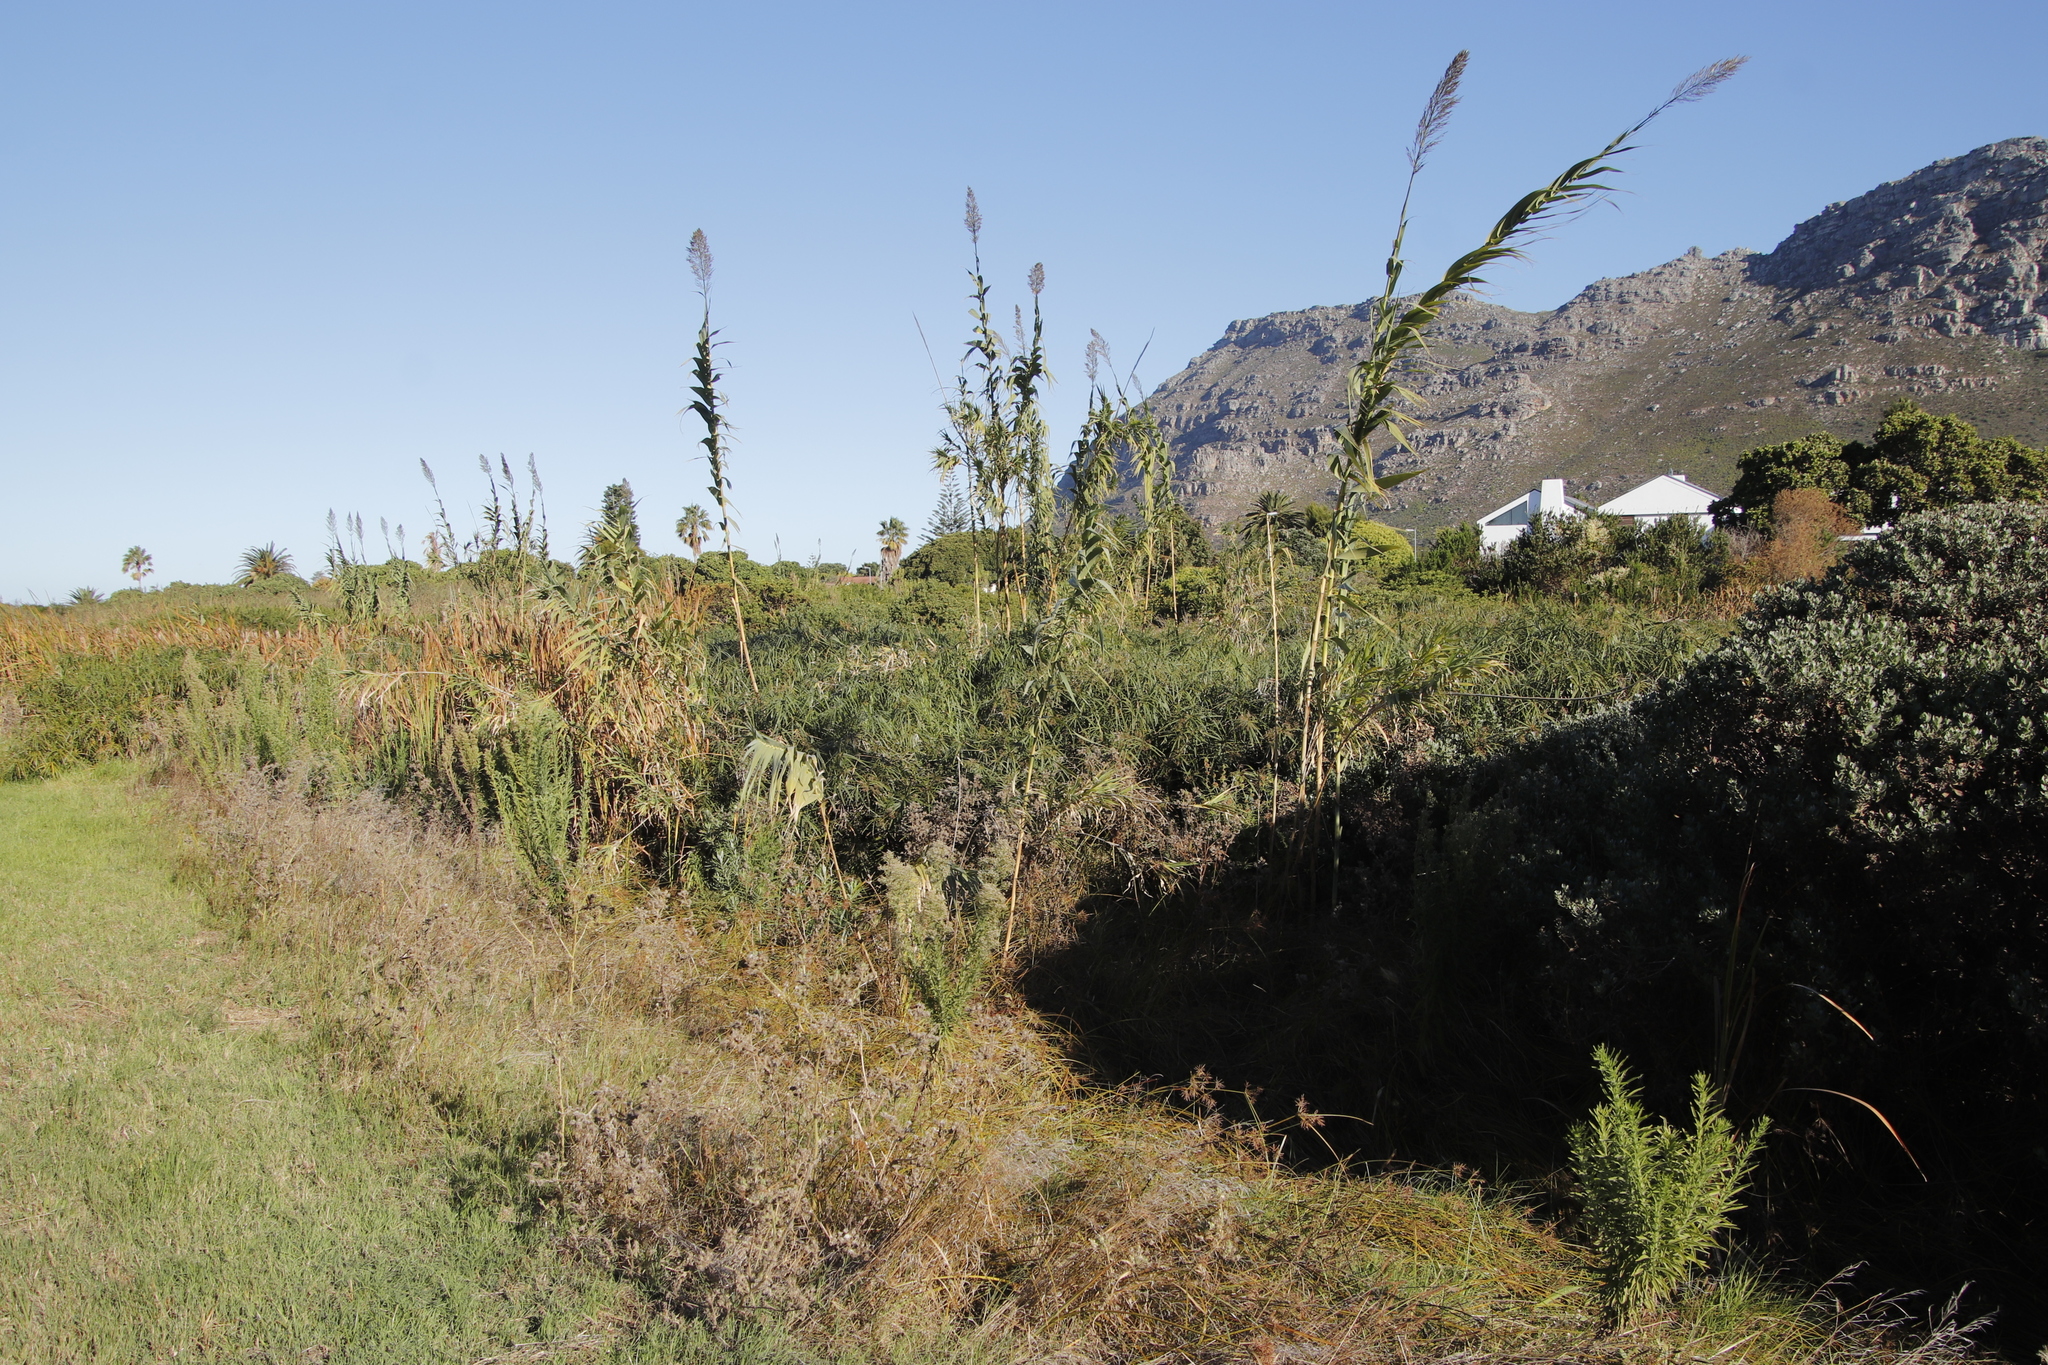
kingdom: Plantae
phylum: Tracheophyta
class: Liliopsida
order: Poales
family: Poaceae
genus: Arundo
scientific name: Arundo donax
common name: Giant reed
